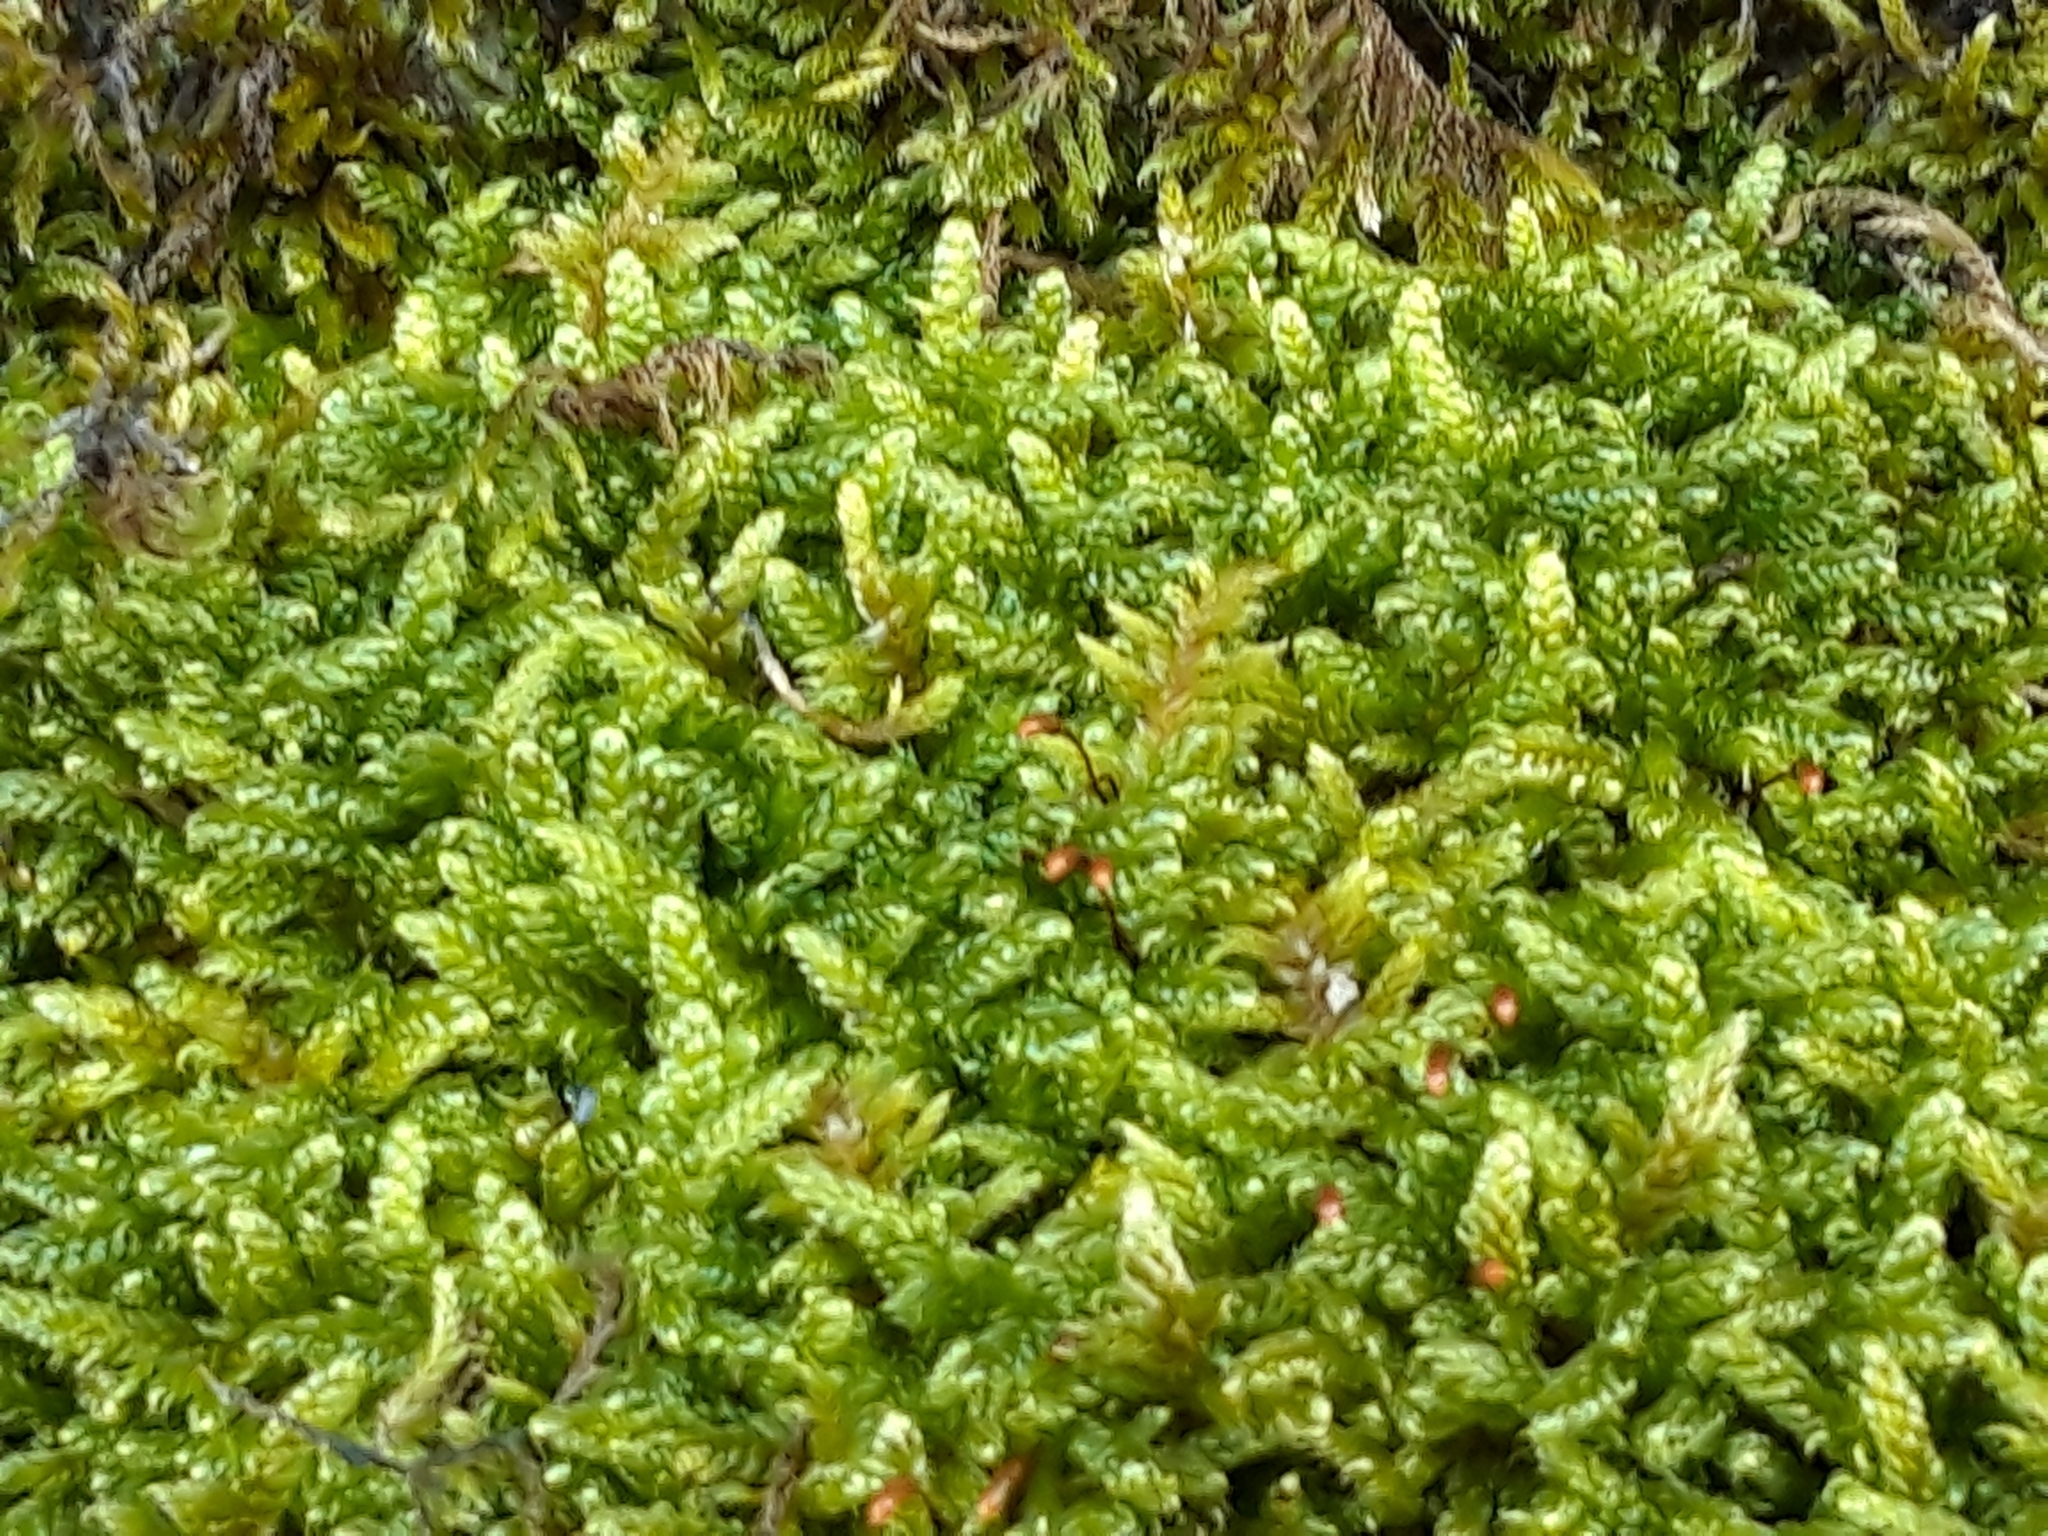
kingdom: Plantae
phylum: Bryophyta
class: Bryopsida
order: Hypnales
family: Hypnaceae
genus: Hypnum
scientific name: Hypnum cupressiforme
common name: Cypress-leaved plait-moss
